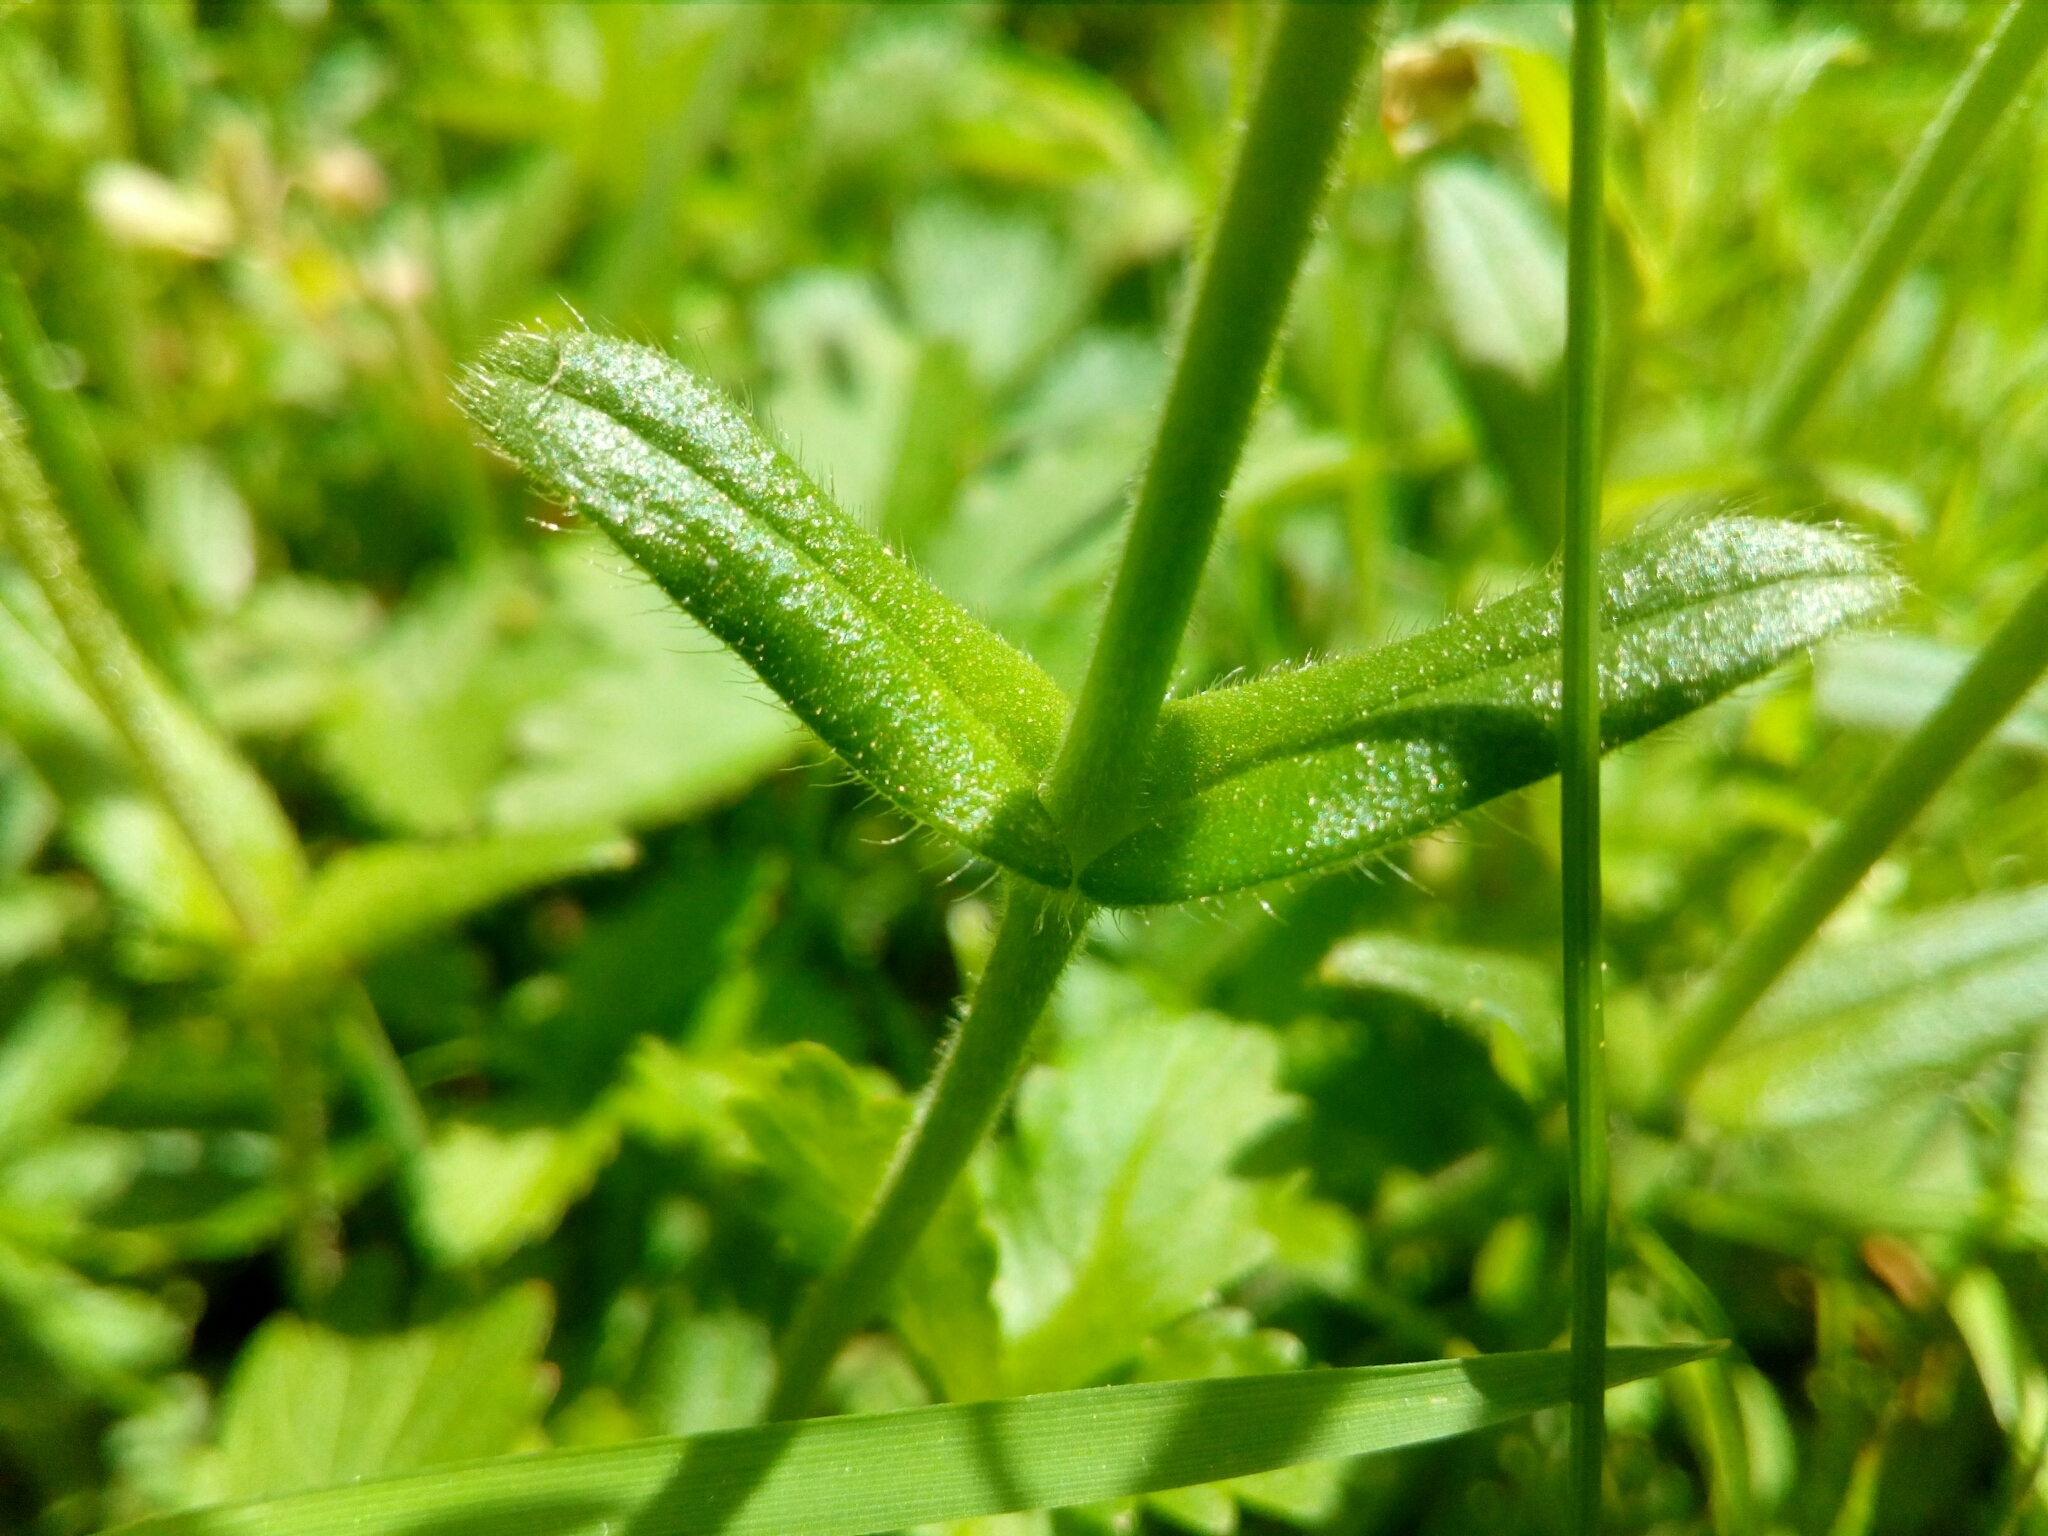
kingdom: Plantae
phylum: Tracheophyta
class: Magnoliopsida
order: Caryophyllales
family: Caryophyllaceae
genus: Cerastium
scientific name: Cerastium holosteoides
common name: Big chickweed
